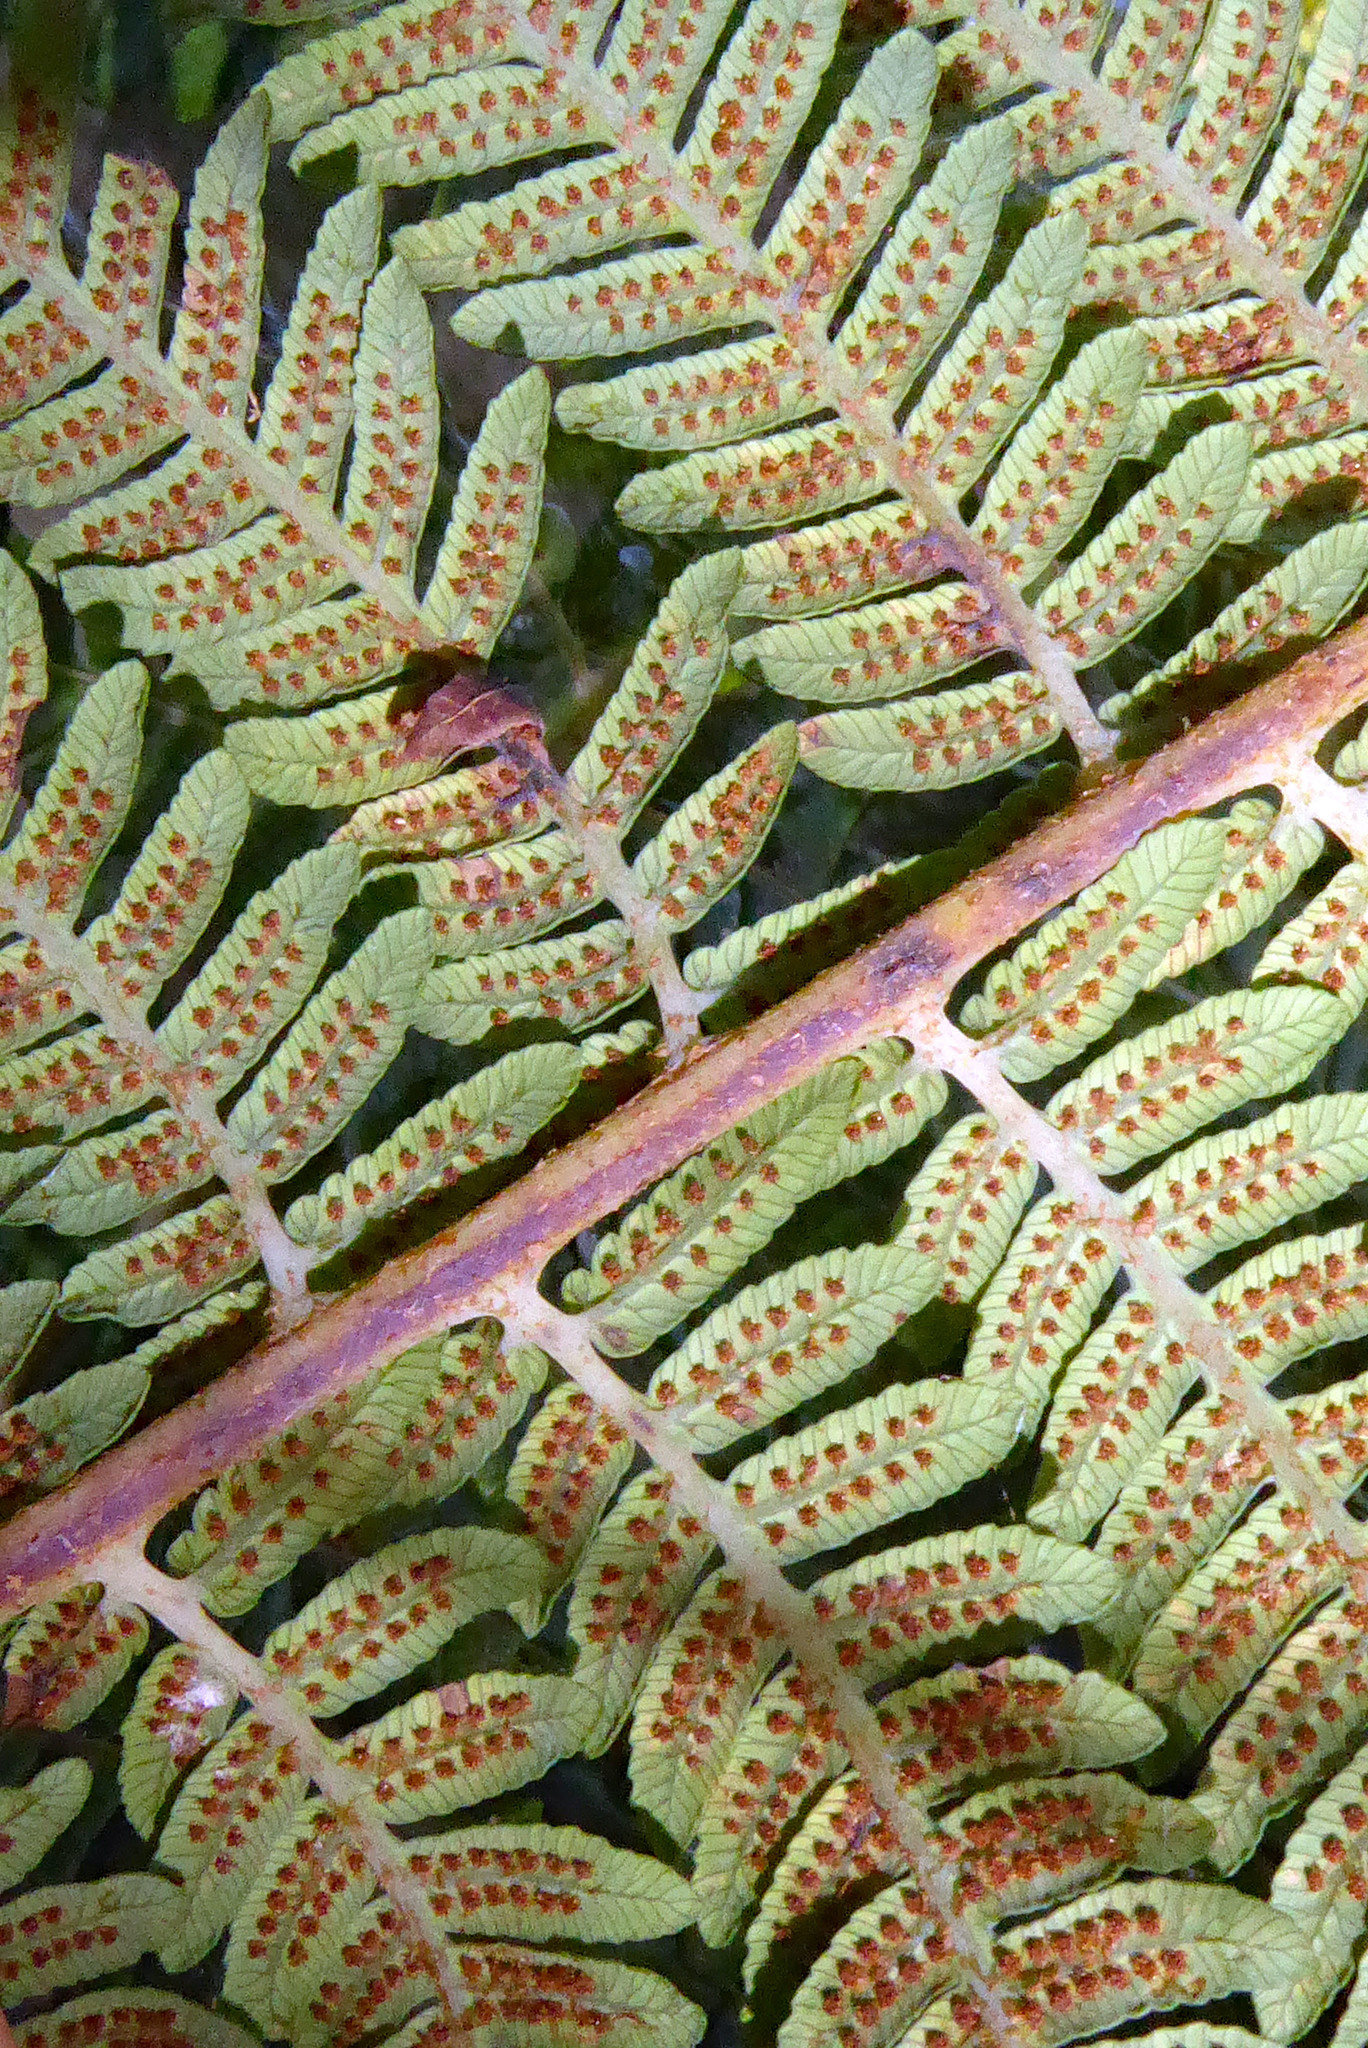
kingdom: Plantae
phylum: Tracheophyta
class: Polypodiopsida
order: Cyatheales
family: Cyatheaceae
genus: Alsophila
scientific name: Alsophila australis
